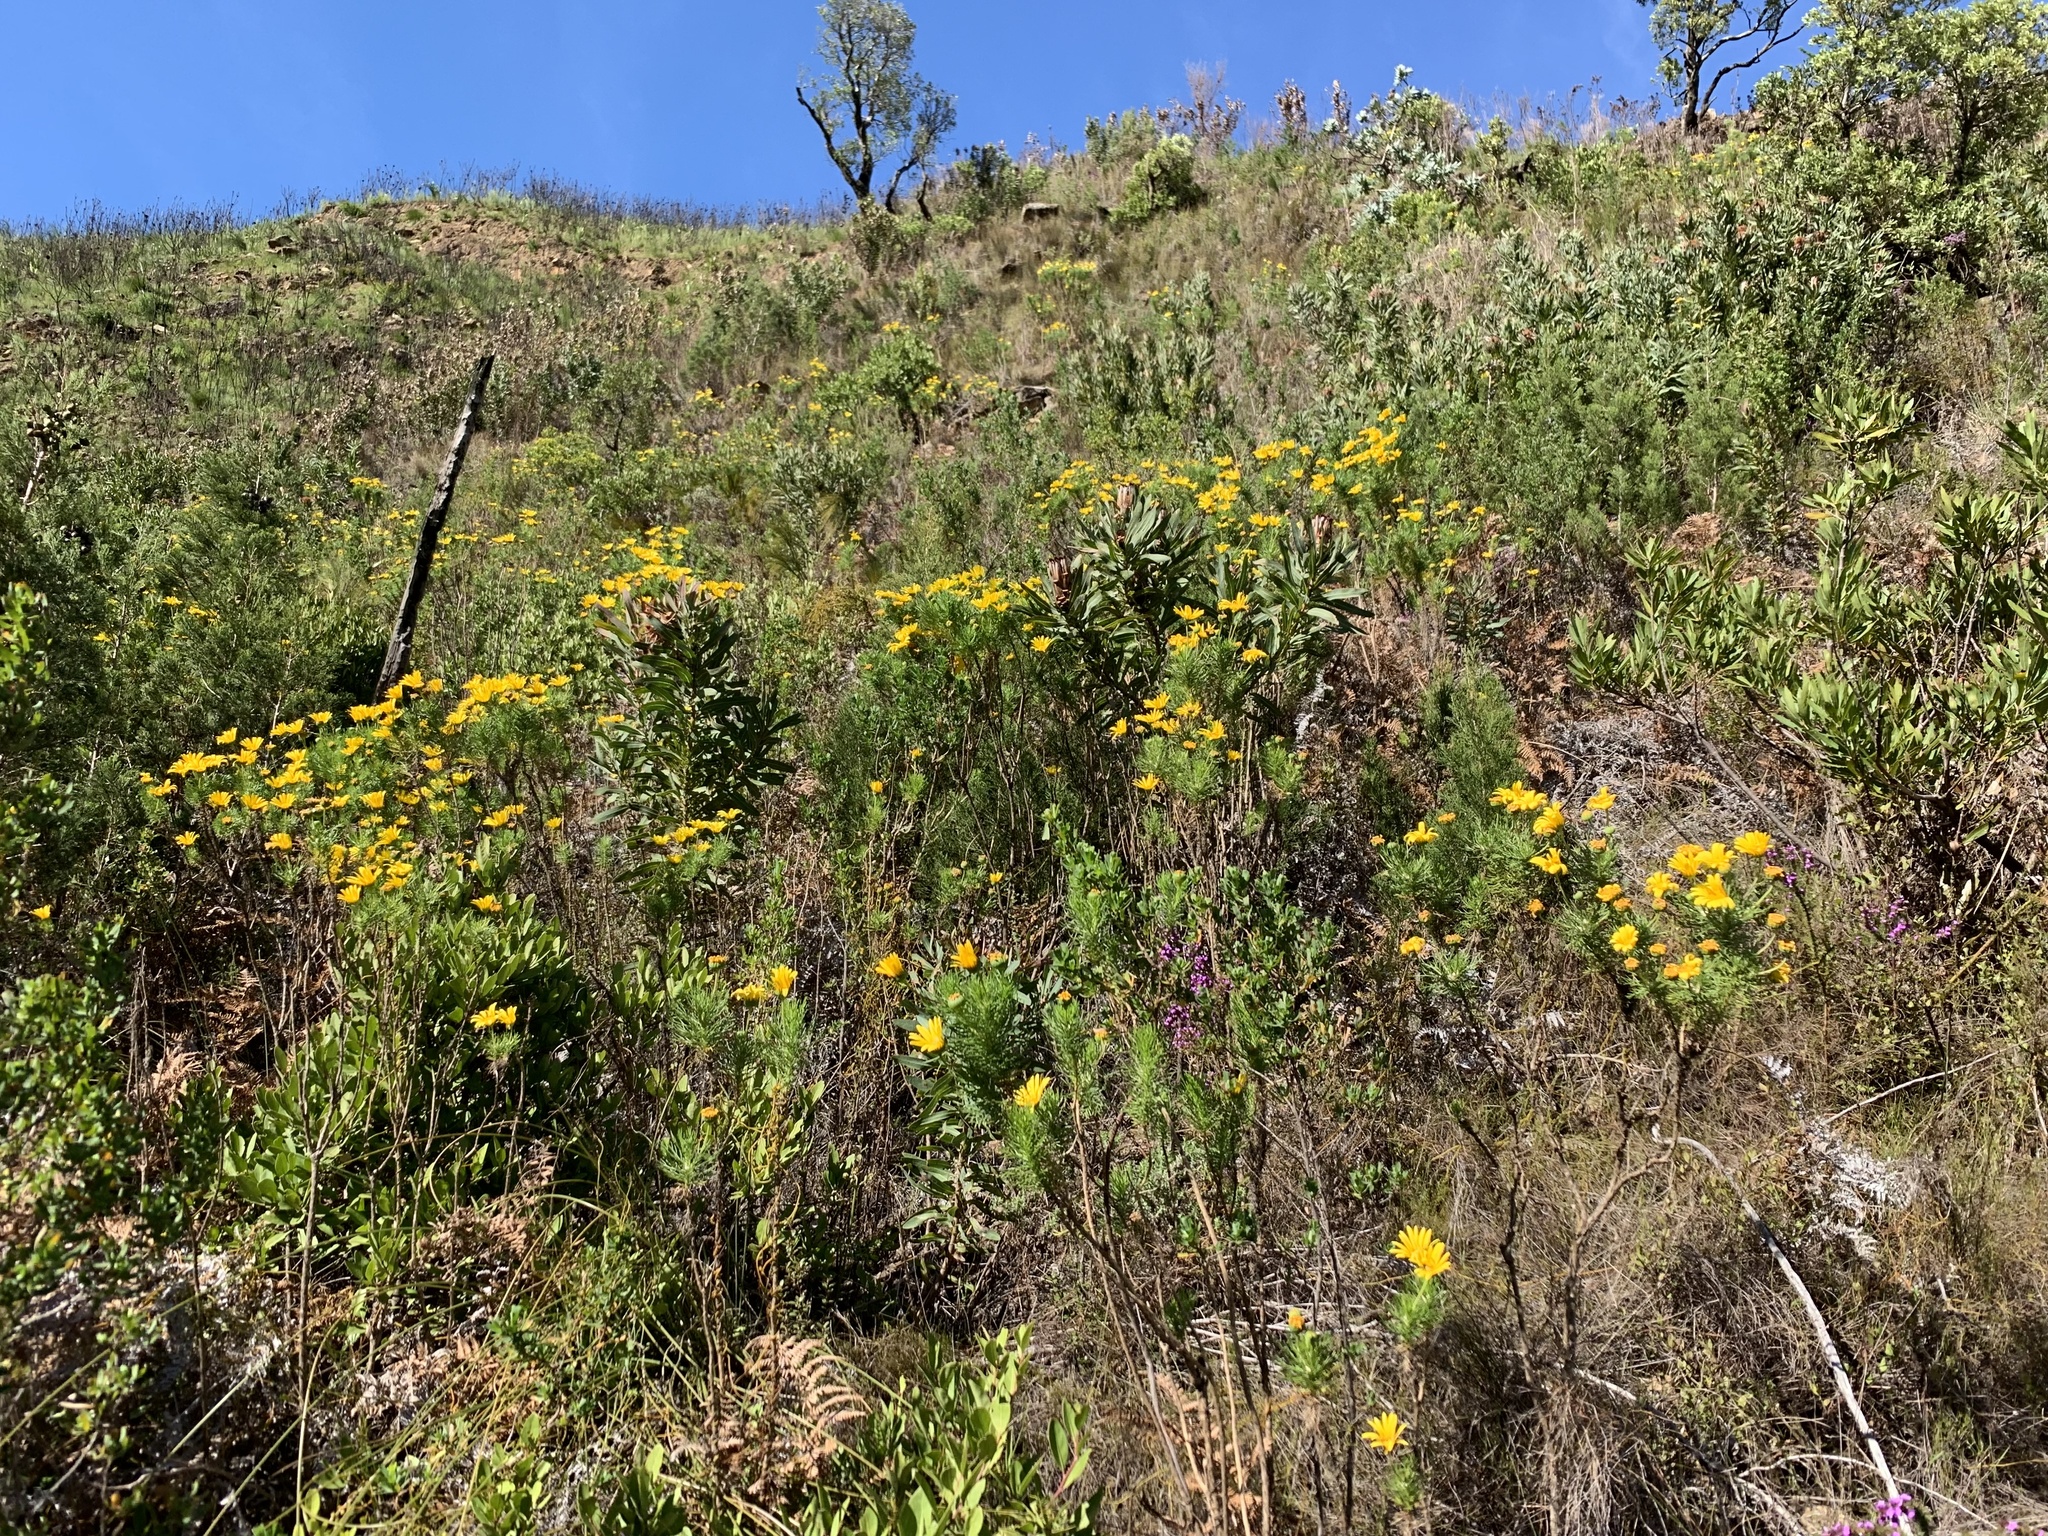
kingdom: Plantae
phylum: Tracheophyta
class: Magnoliopsida
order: Asterales
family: Asteraceae
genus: Euryops
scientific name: Euryops abrotanifolius
